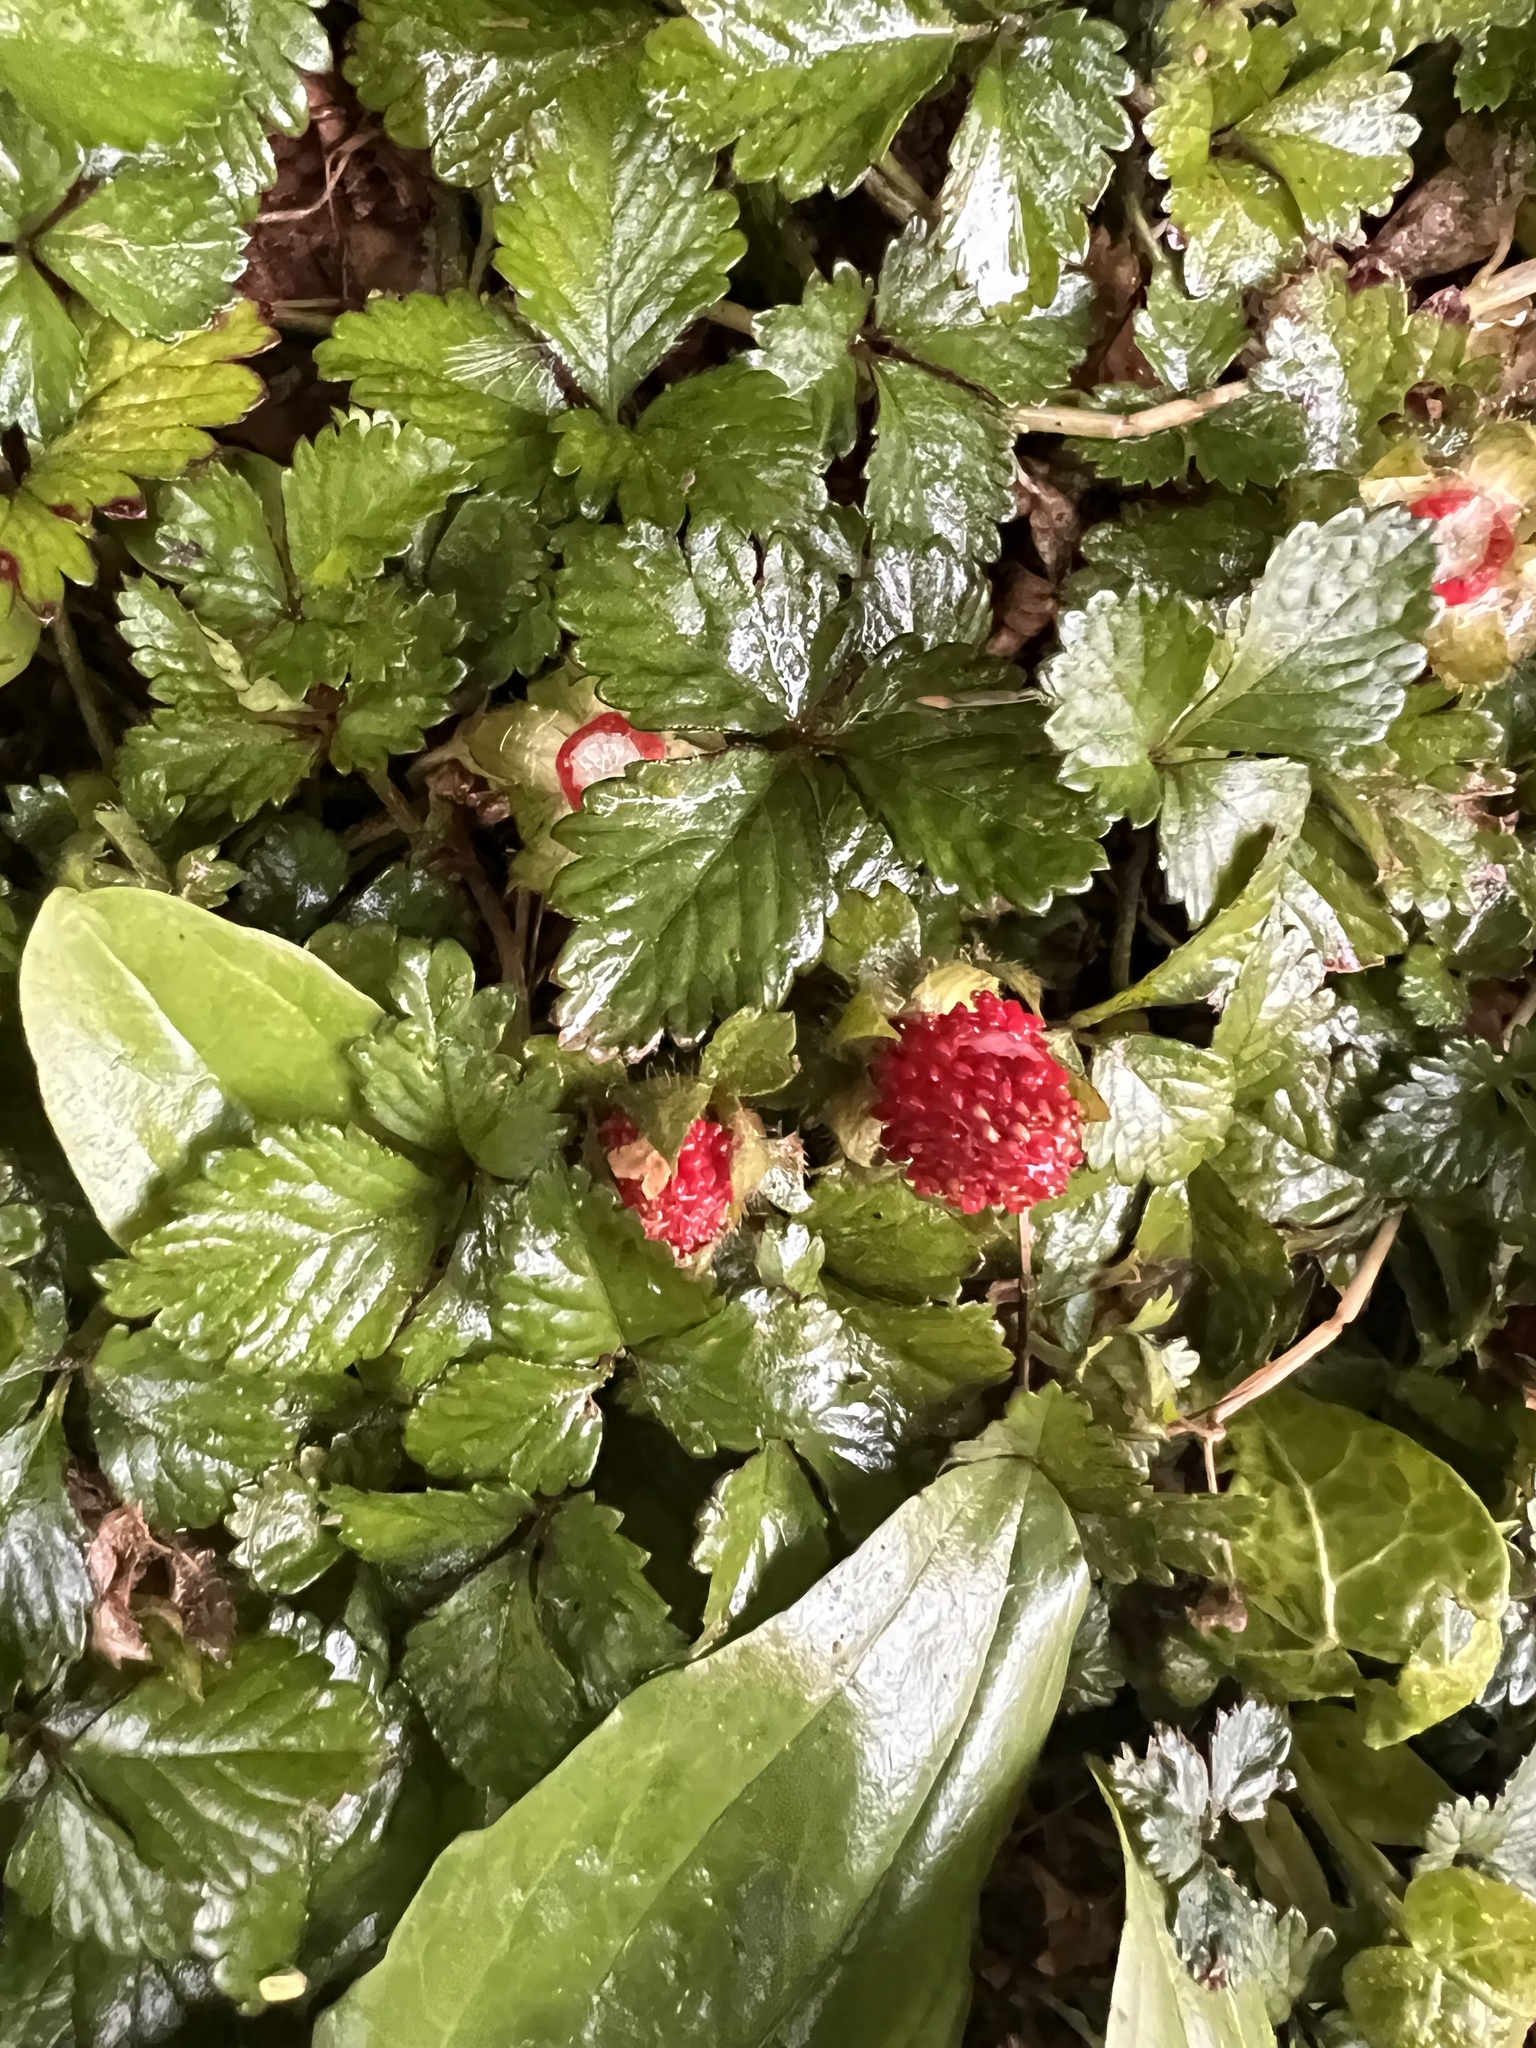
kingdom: Plantae
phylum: Tracheophyta
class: Magnoliopsida
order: Rosales
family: Rosaceae
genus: Potentilla
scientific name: Potentilla indica
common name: Yellow-flowered strawberry
